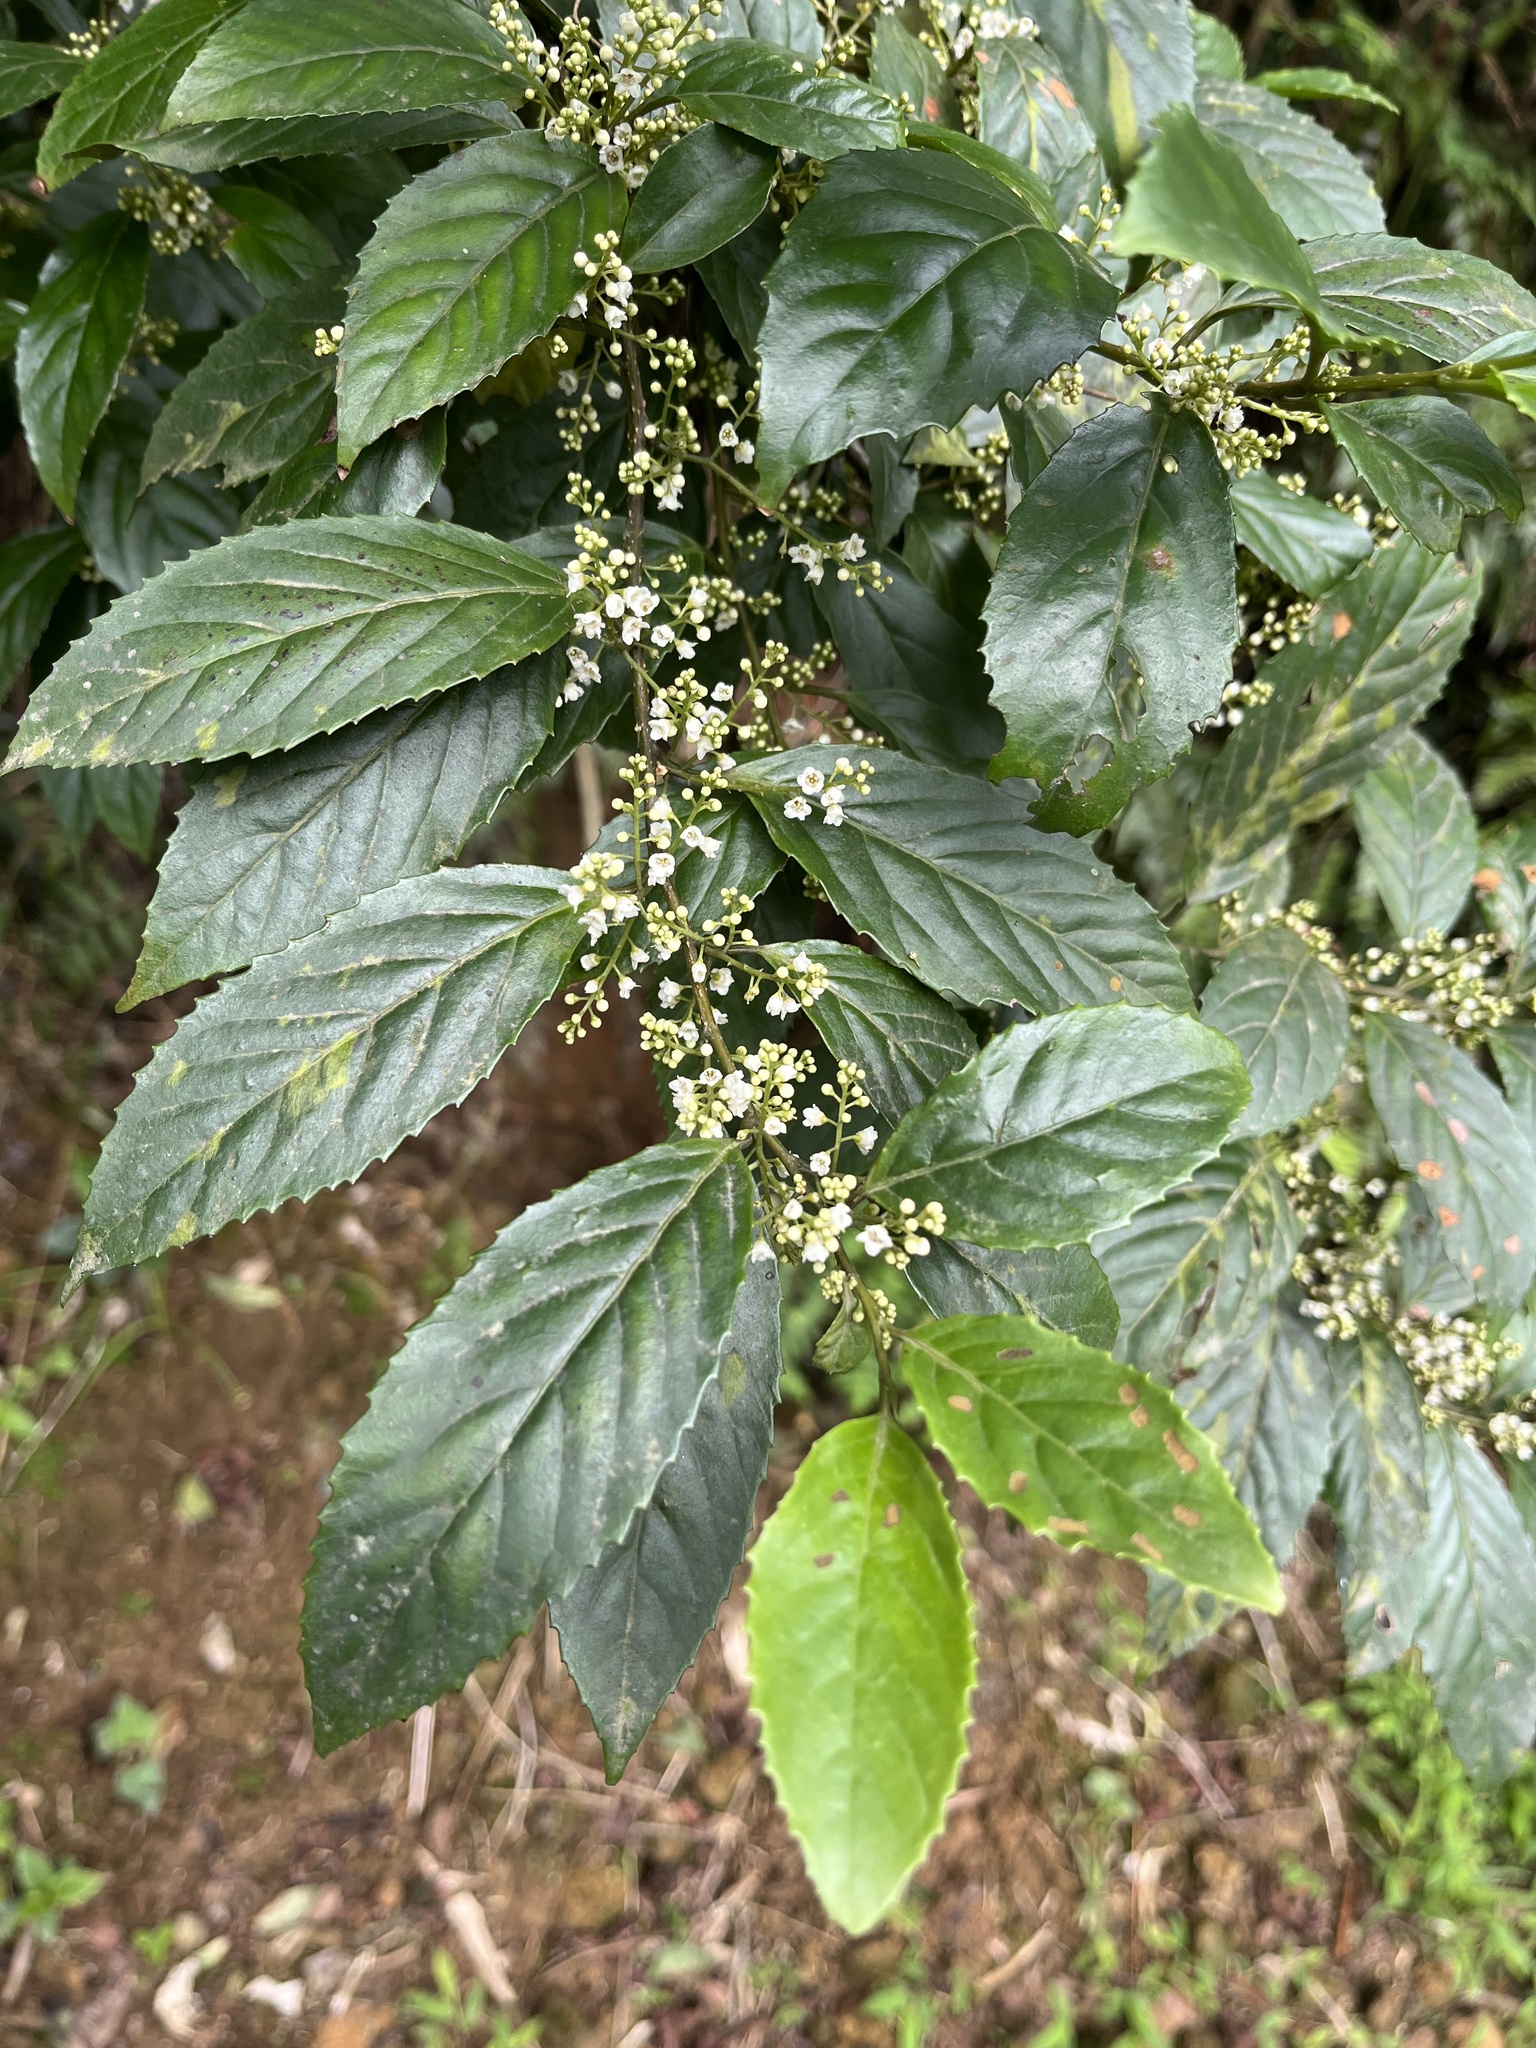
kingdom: Plantae
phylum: Tracheophyta
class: Magnoliopsida
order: Ericales
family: Primulaceae
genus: Maesa
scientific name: Maesa perlaria
